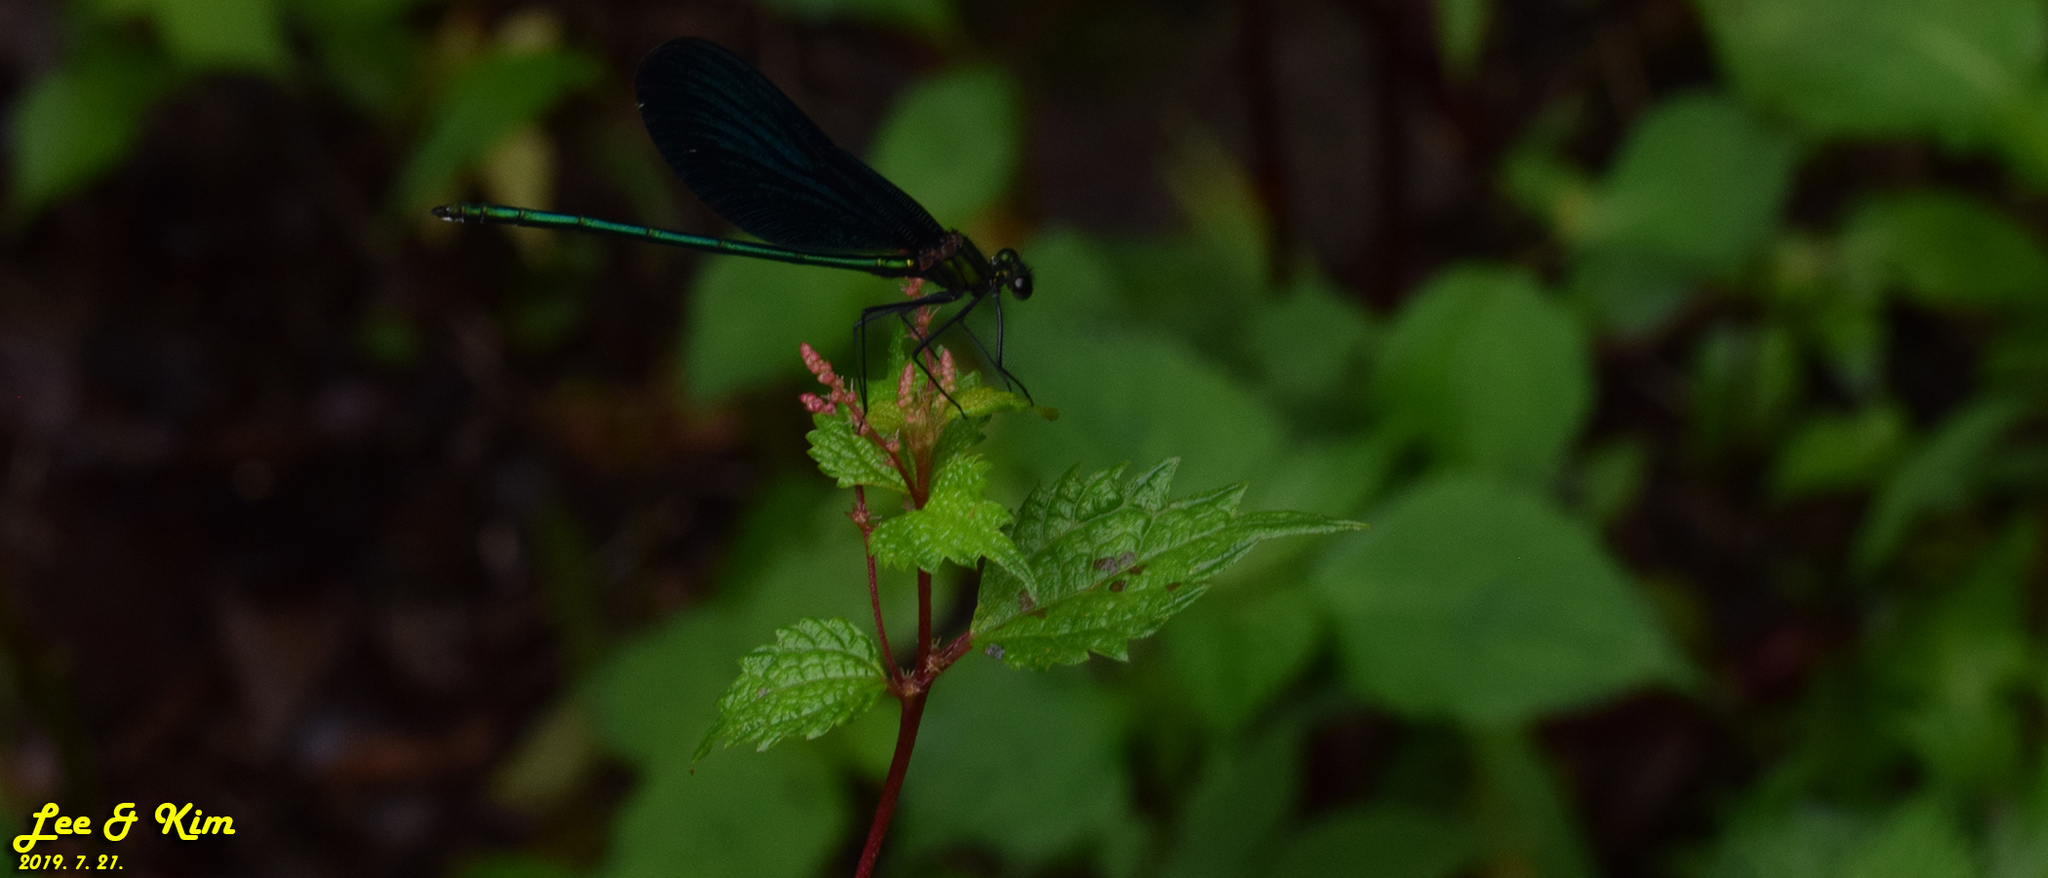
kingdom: Animalia
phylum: Arthropoda
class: Insecta
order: Odonata
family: Calopterygidae
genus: Calopteryx
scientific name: Calopteryx japonica
